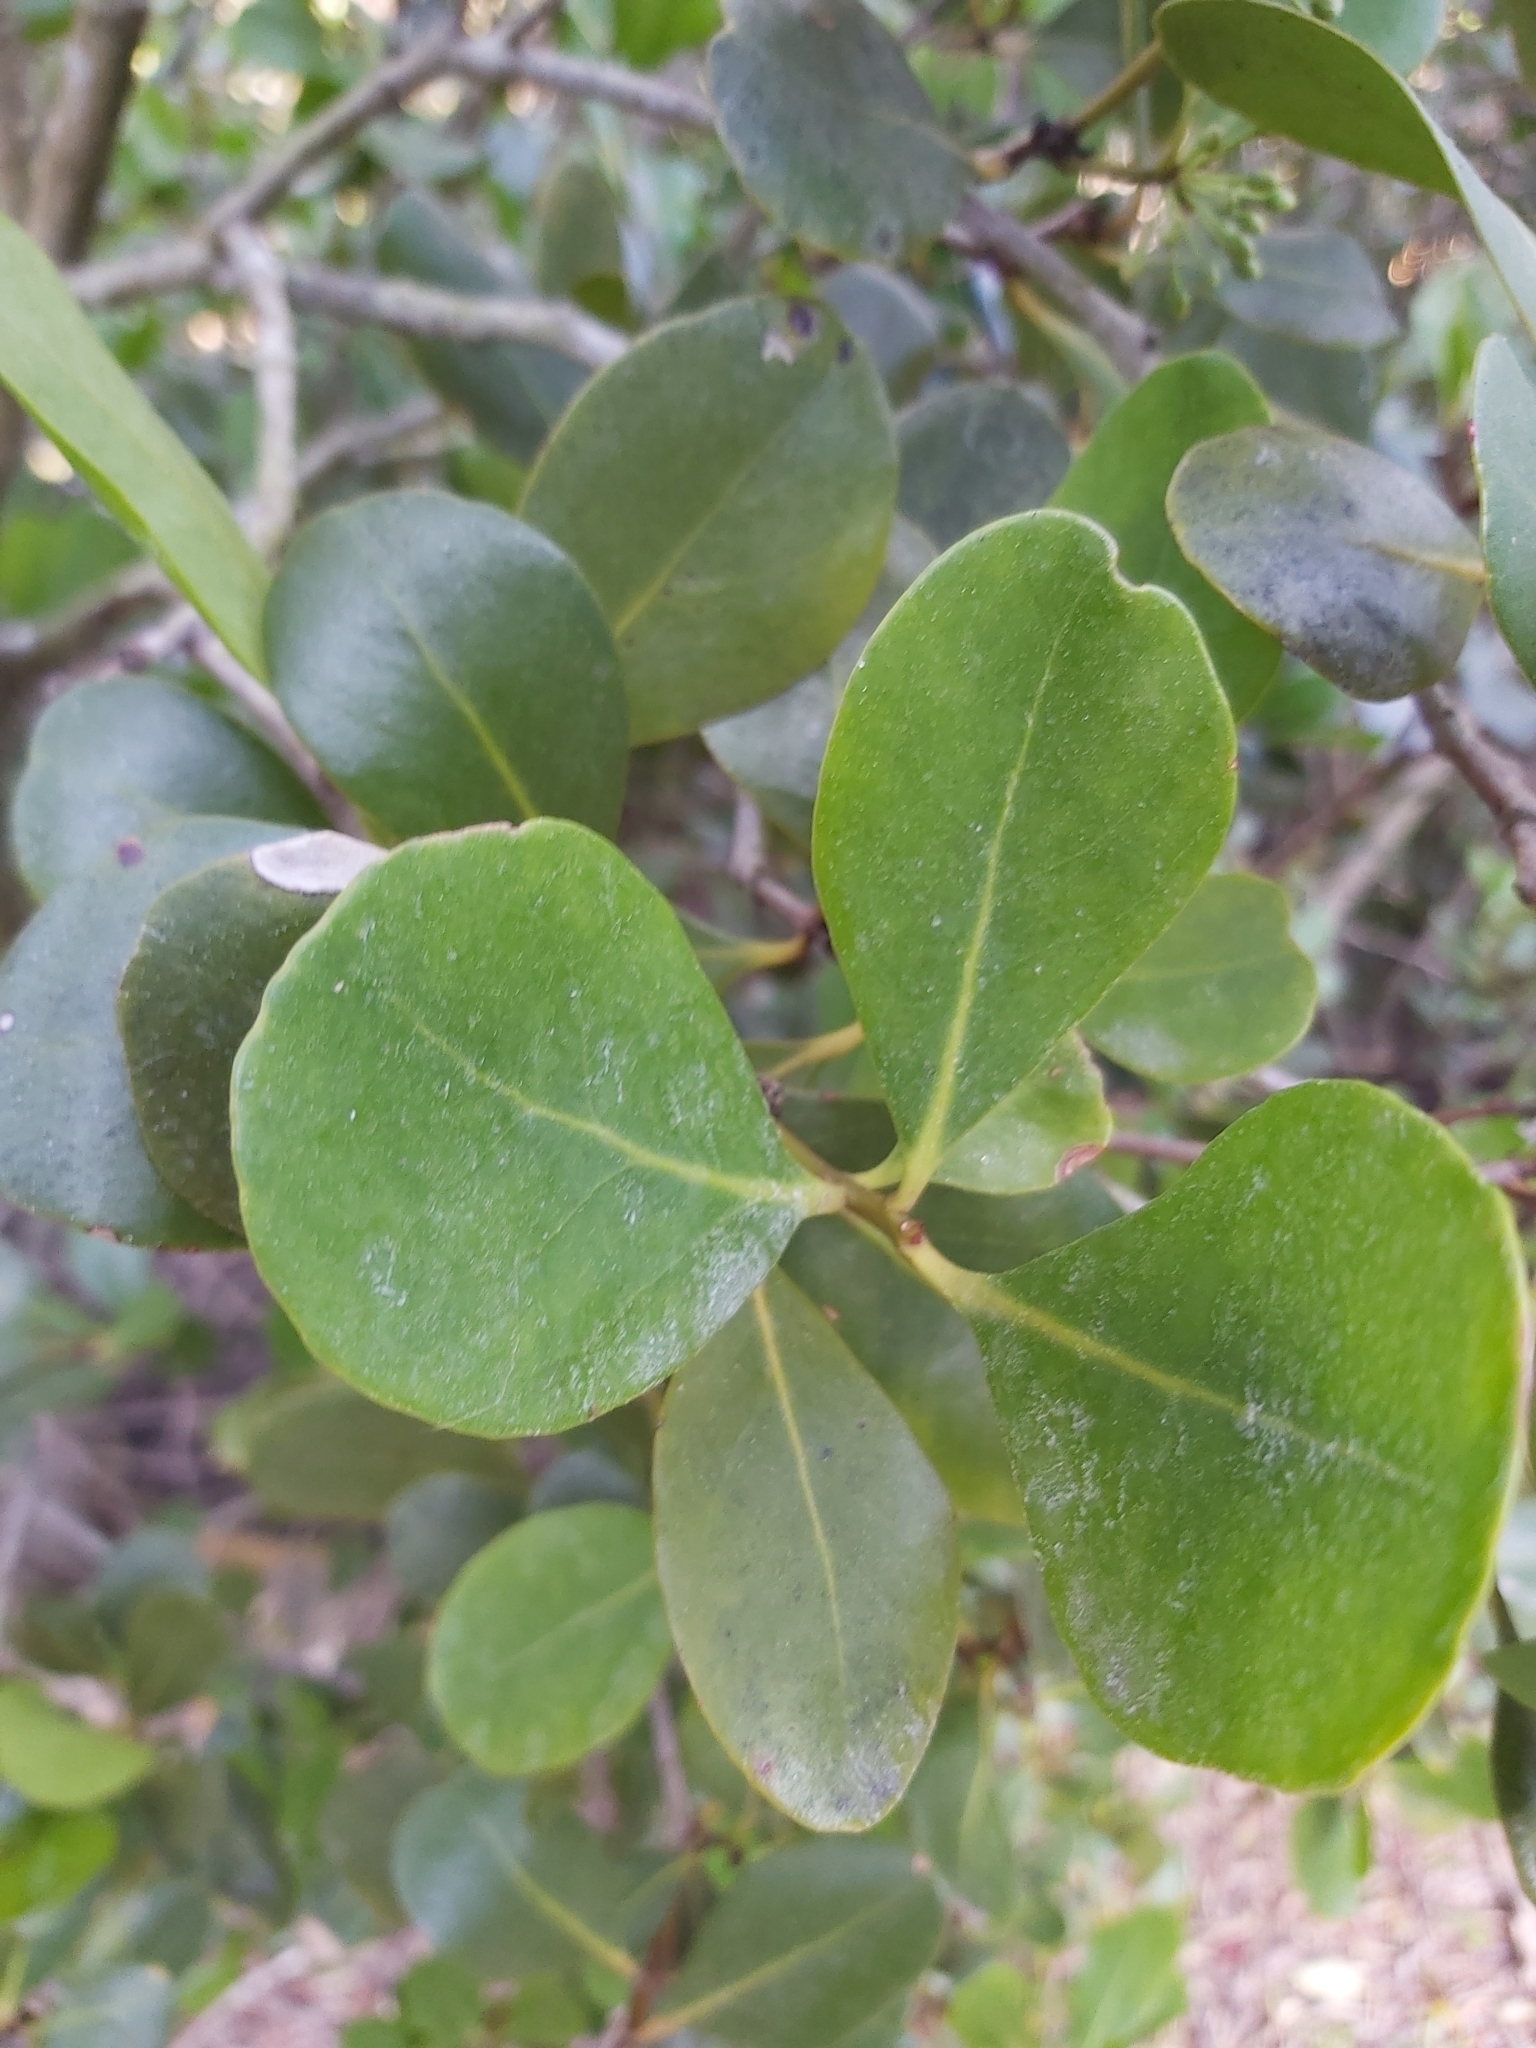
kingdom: Plantae
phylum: Tracheophyta
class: Magnoliopsida
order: Ericales
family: Primulaceae
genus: Aegiceras
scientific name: Aegiceras corniculatum
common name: River mangrove
